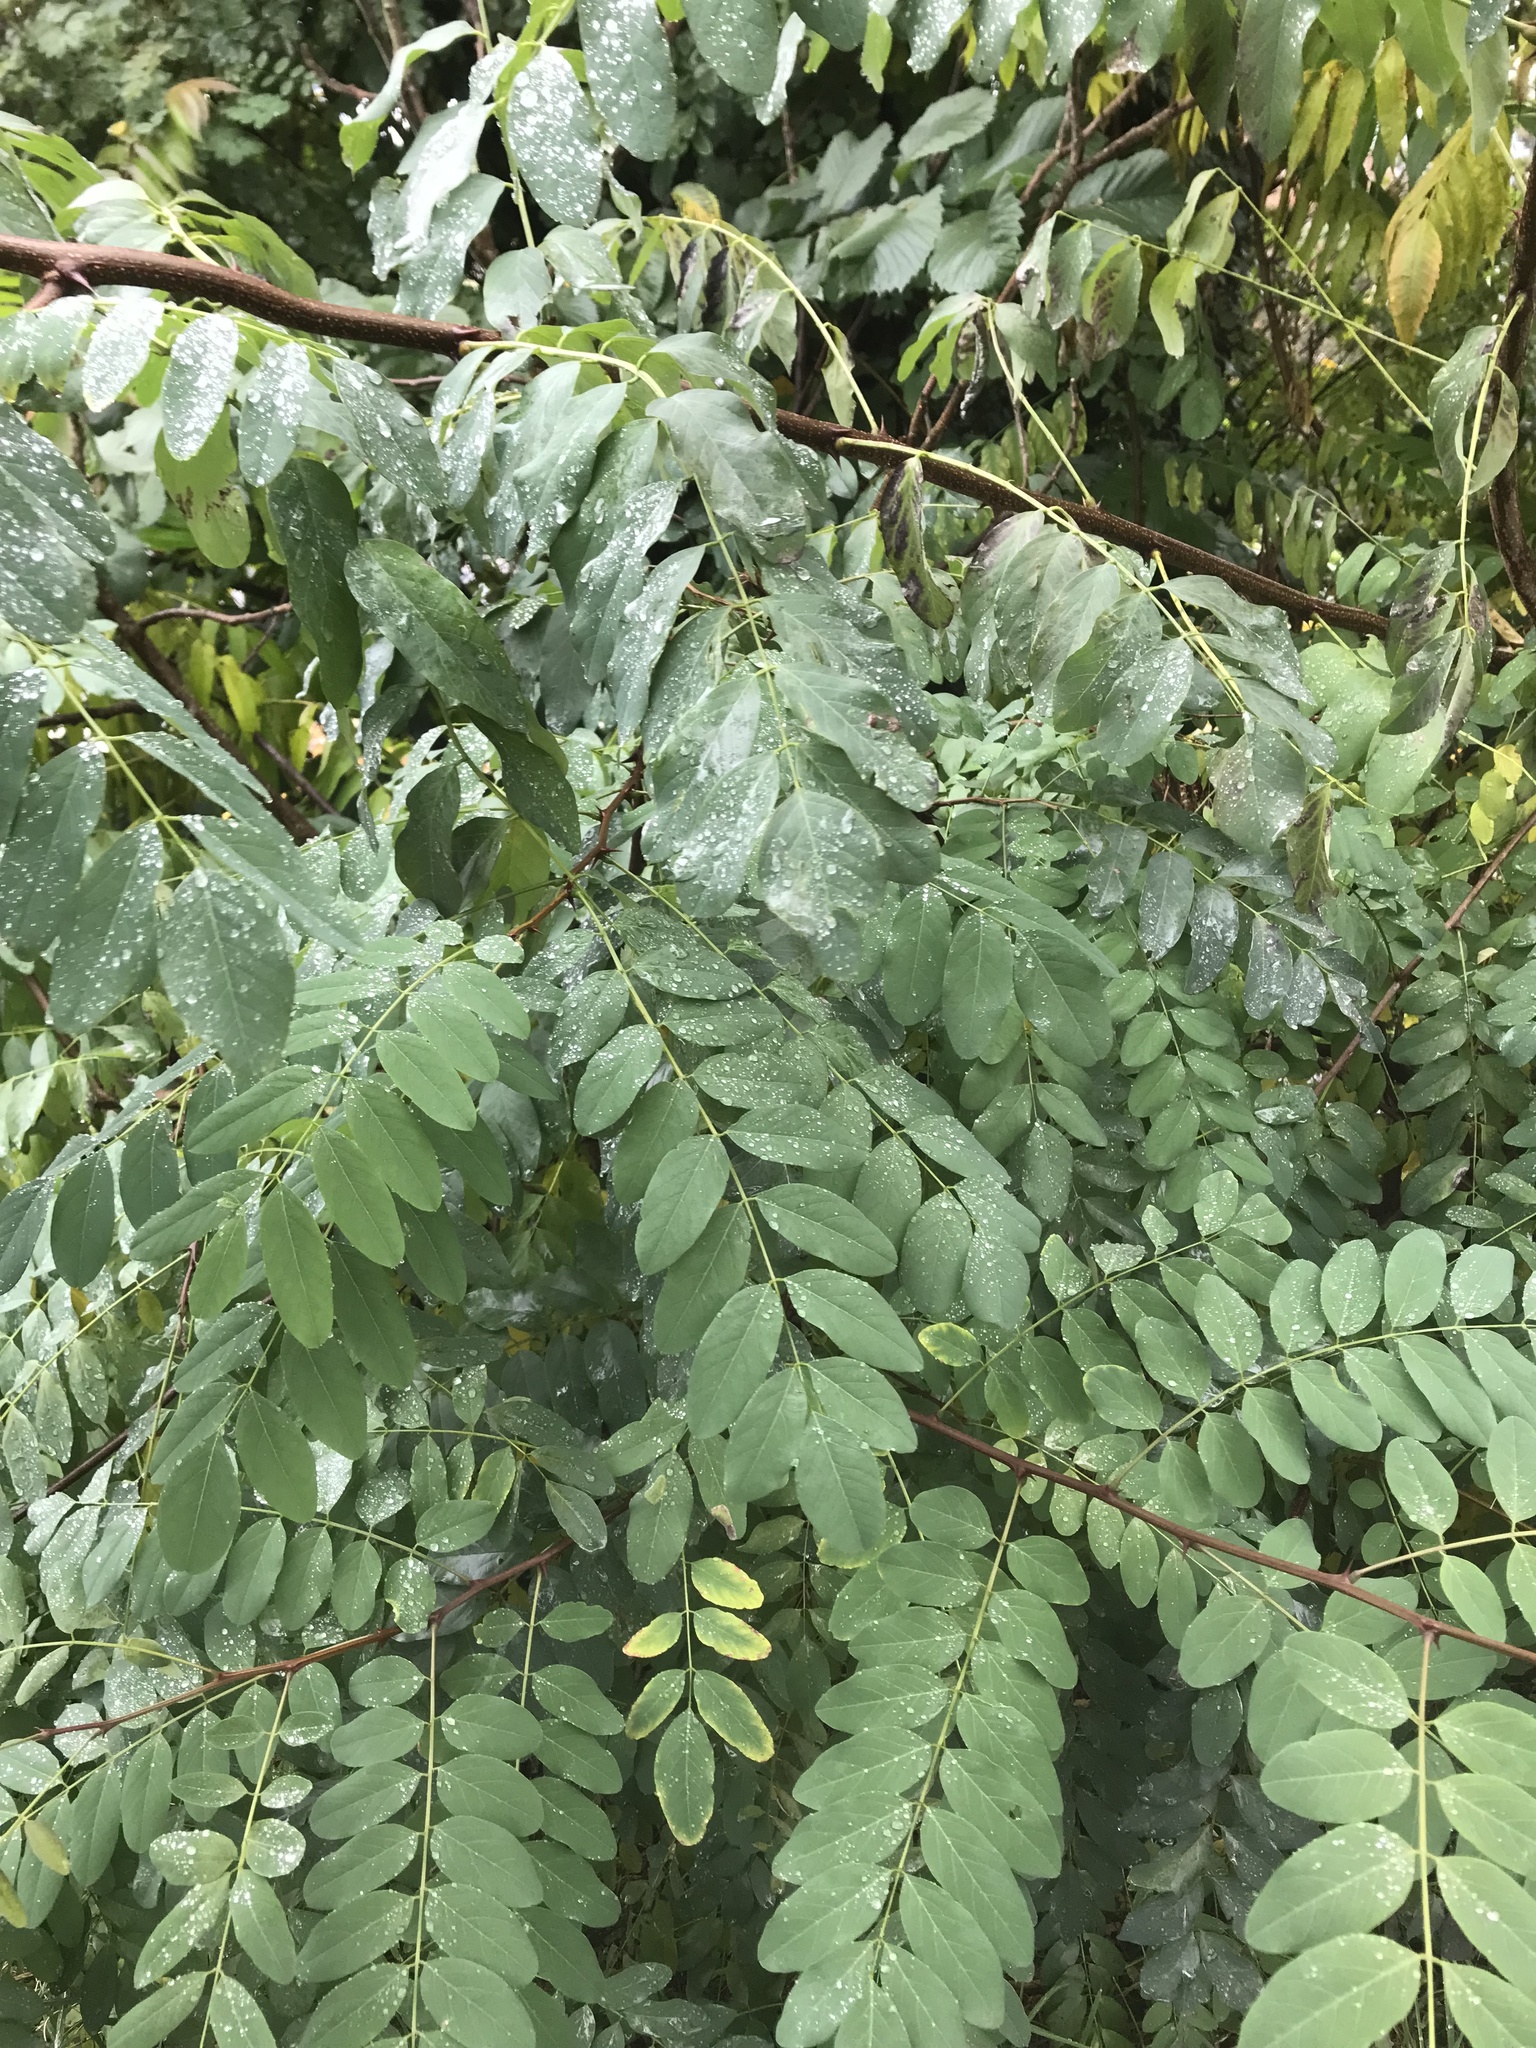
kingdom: Plantae
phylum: Tracheophyta
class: Magnoliopsida
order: Fabales
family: Fabaceae
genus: Robinia
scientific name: Robinia pseudoacacia
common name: Black locust
